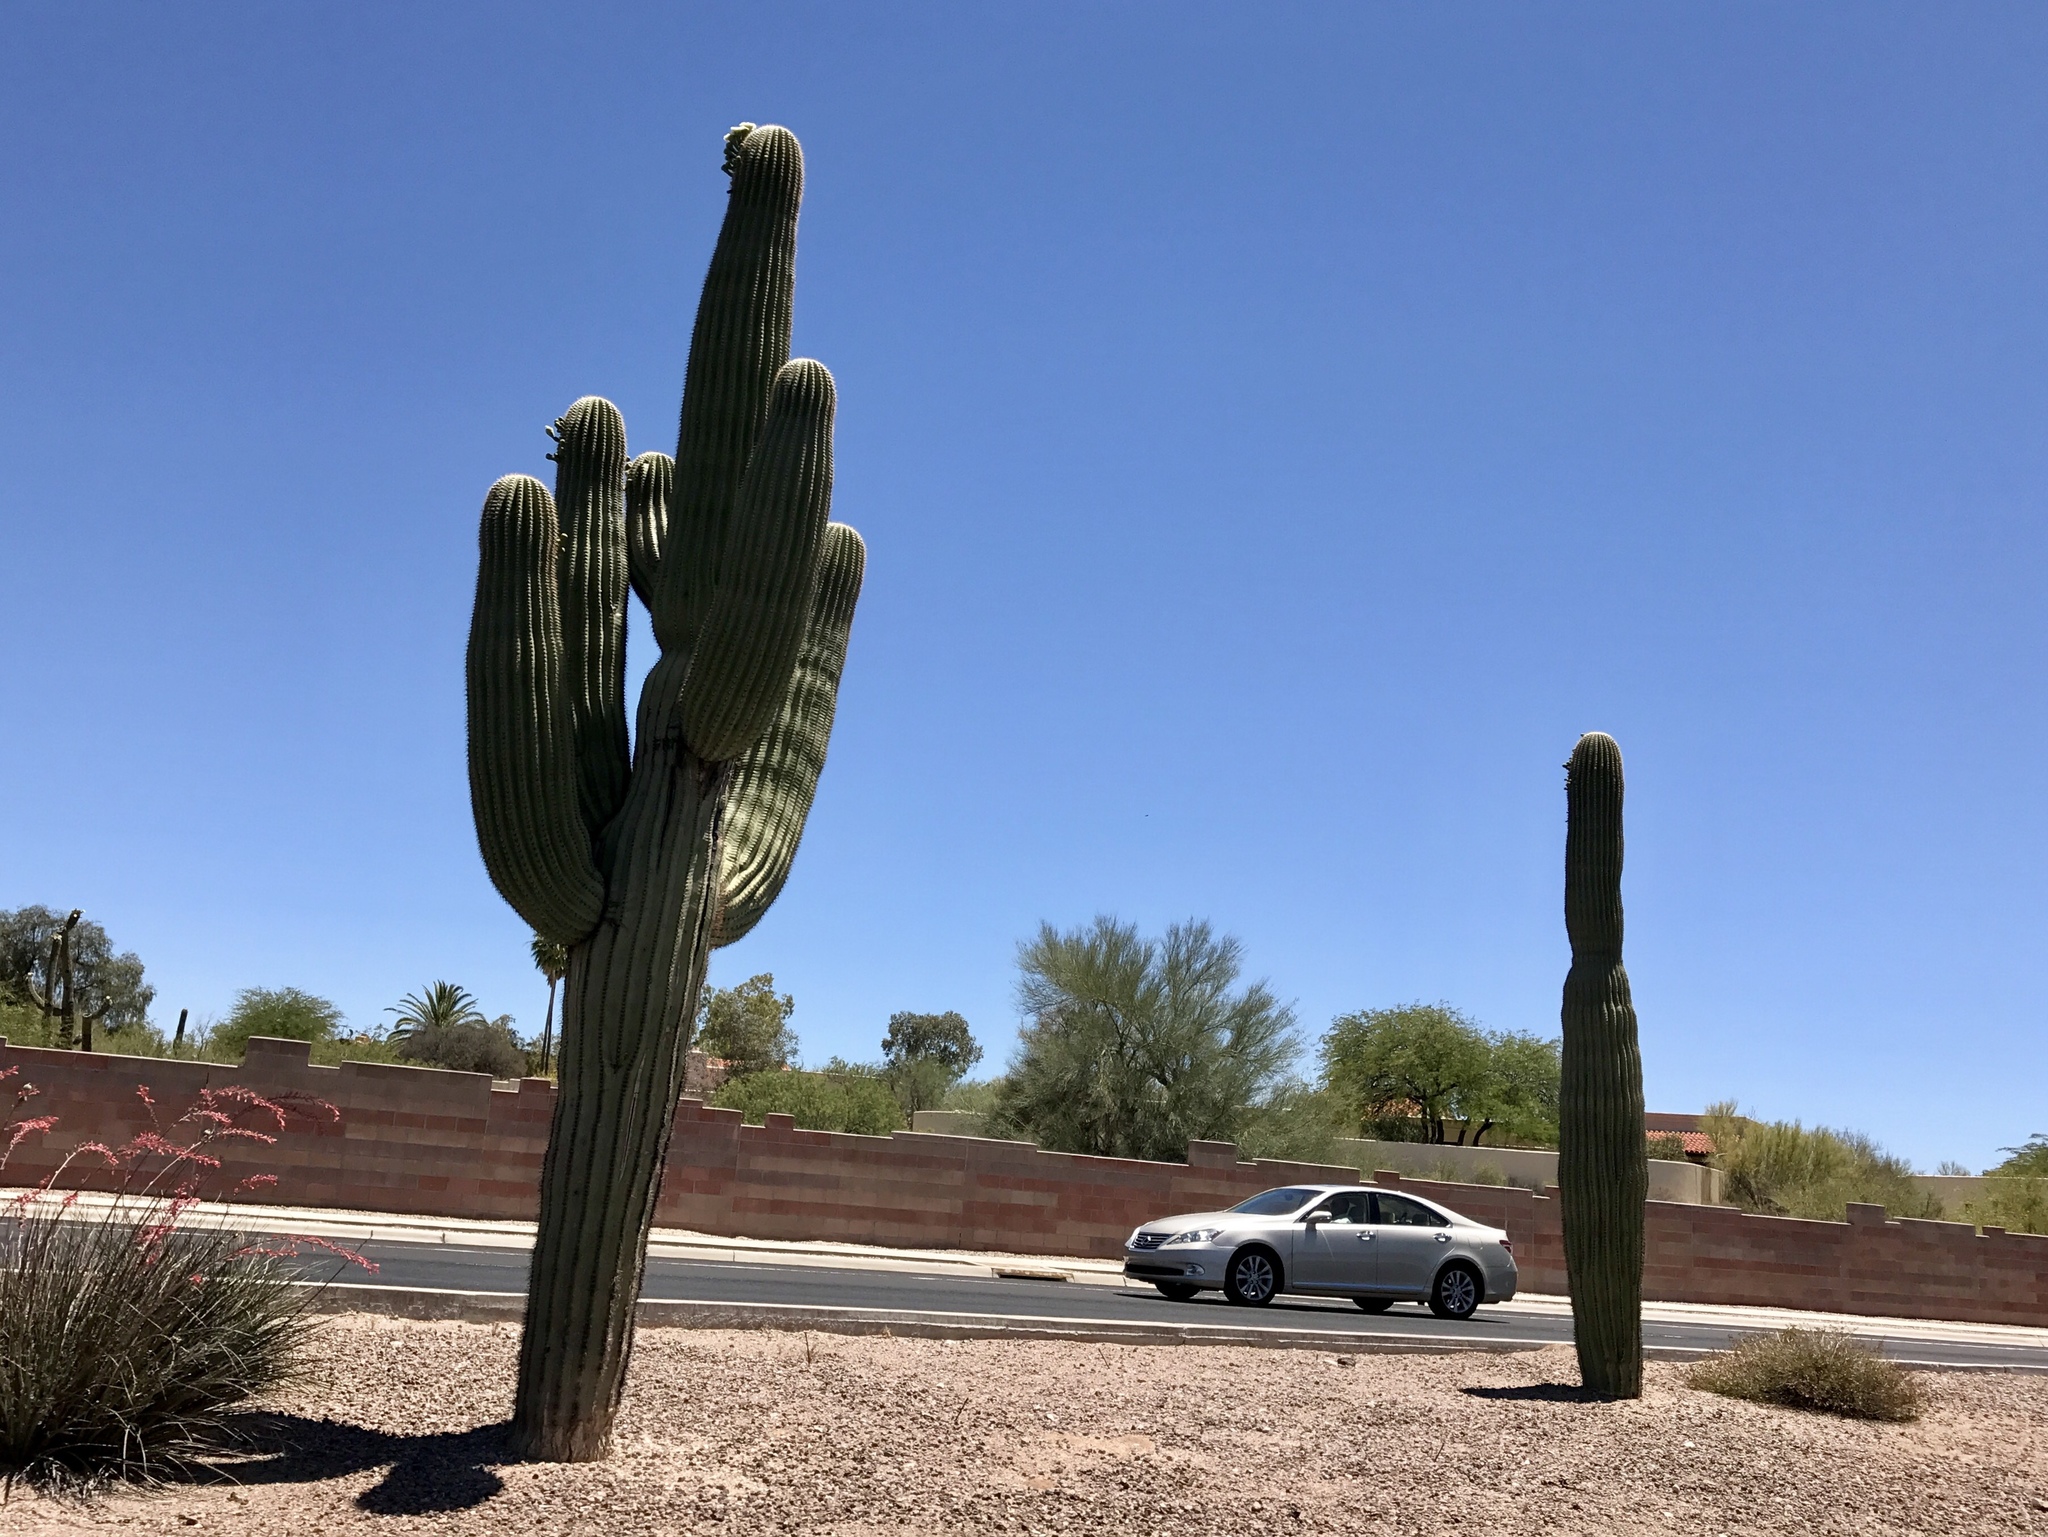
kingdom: Plantae
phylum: Tracheophyta
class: Magnoliopsida
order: Caryophyllales
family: Cactaceae
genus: Carnegiea
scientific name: Carnegiea gigantea
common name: Saguaro
